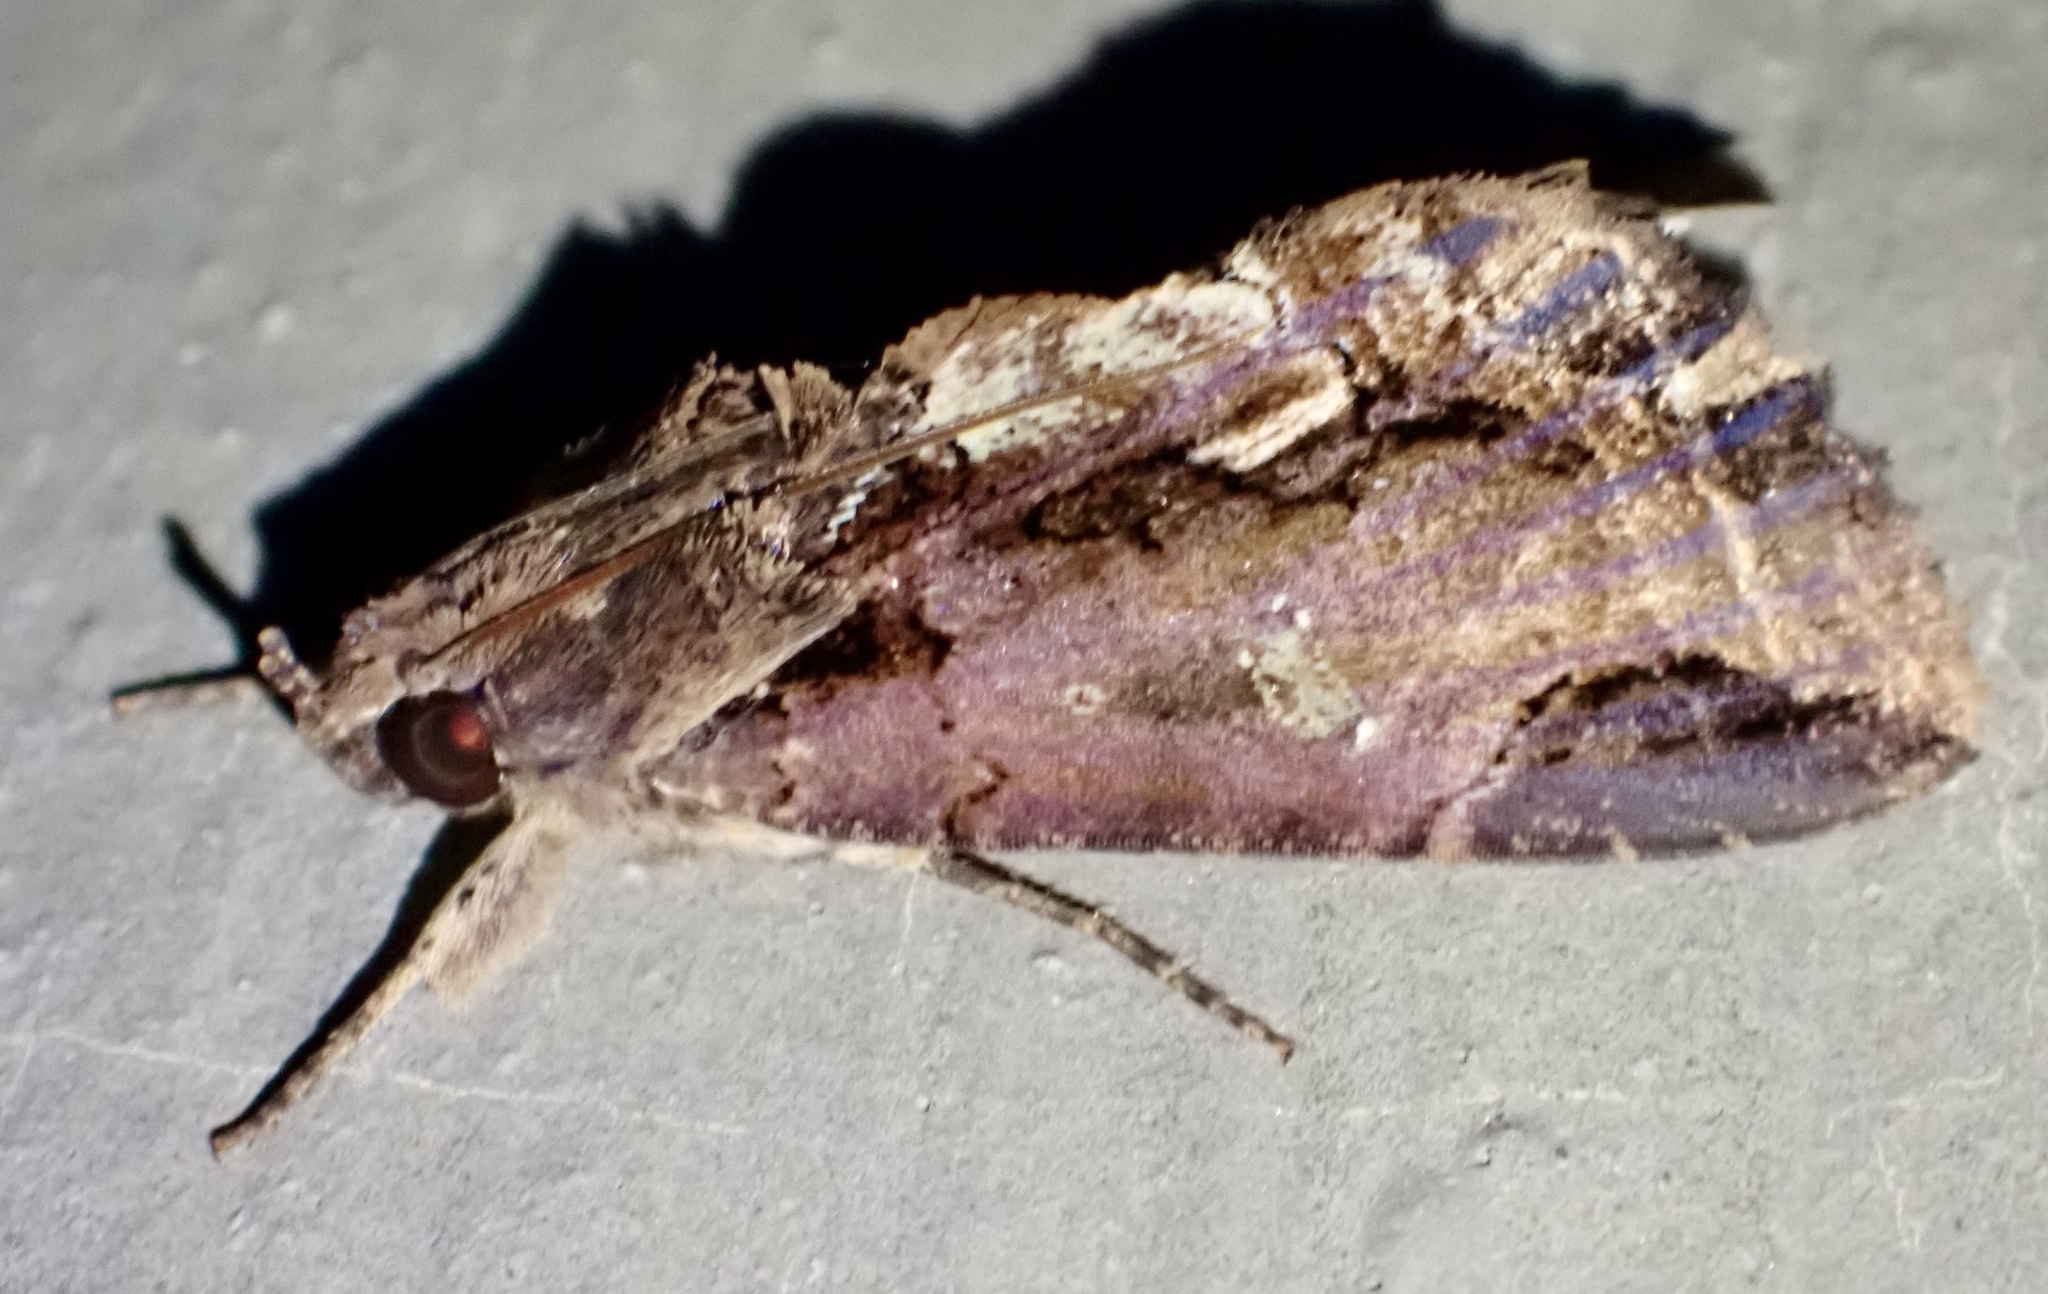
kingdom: Animalia
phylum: Arthropoda
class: Insecta
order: Lepidoptera
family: Erebidae
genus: Ercheia
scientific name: Ercheia dubia
